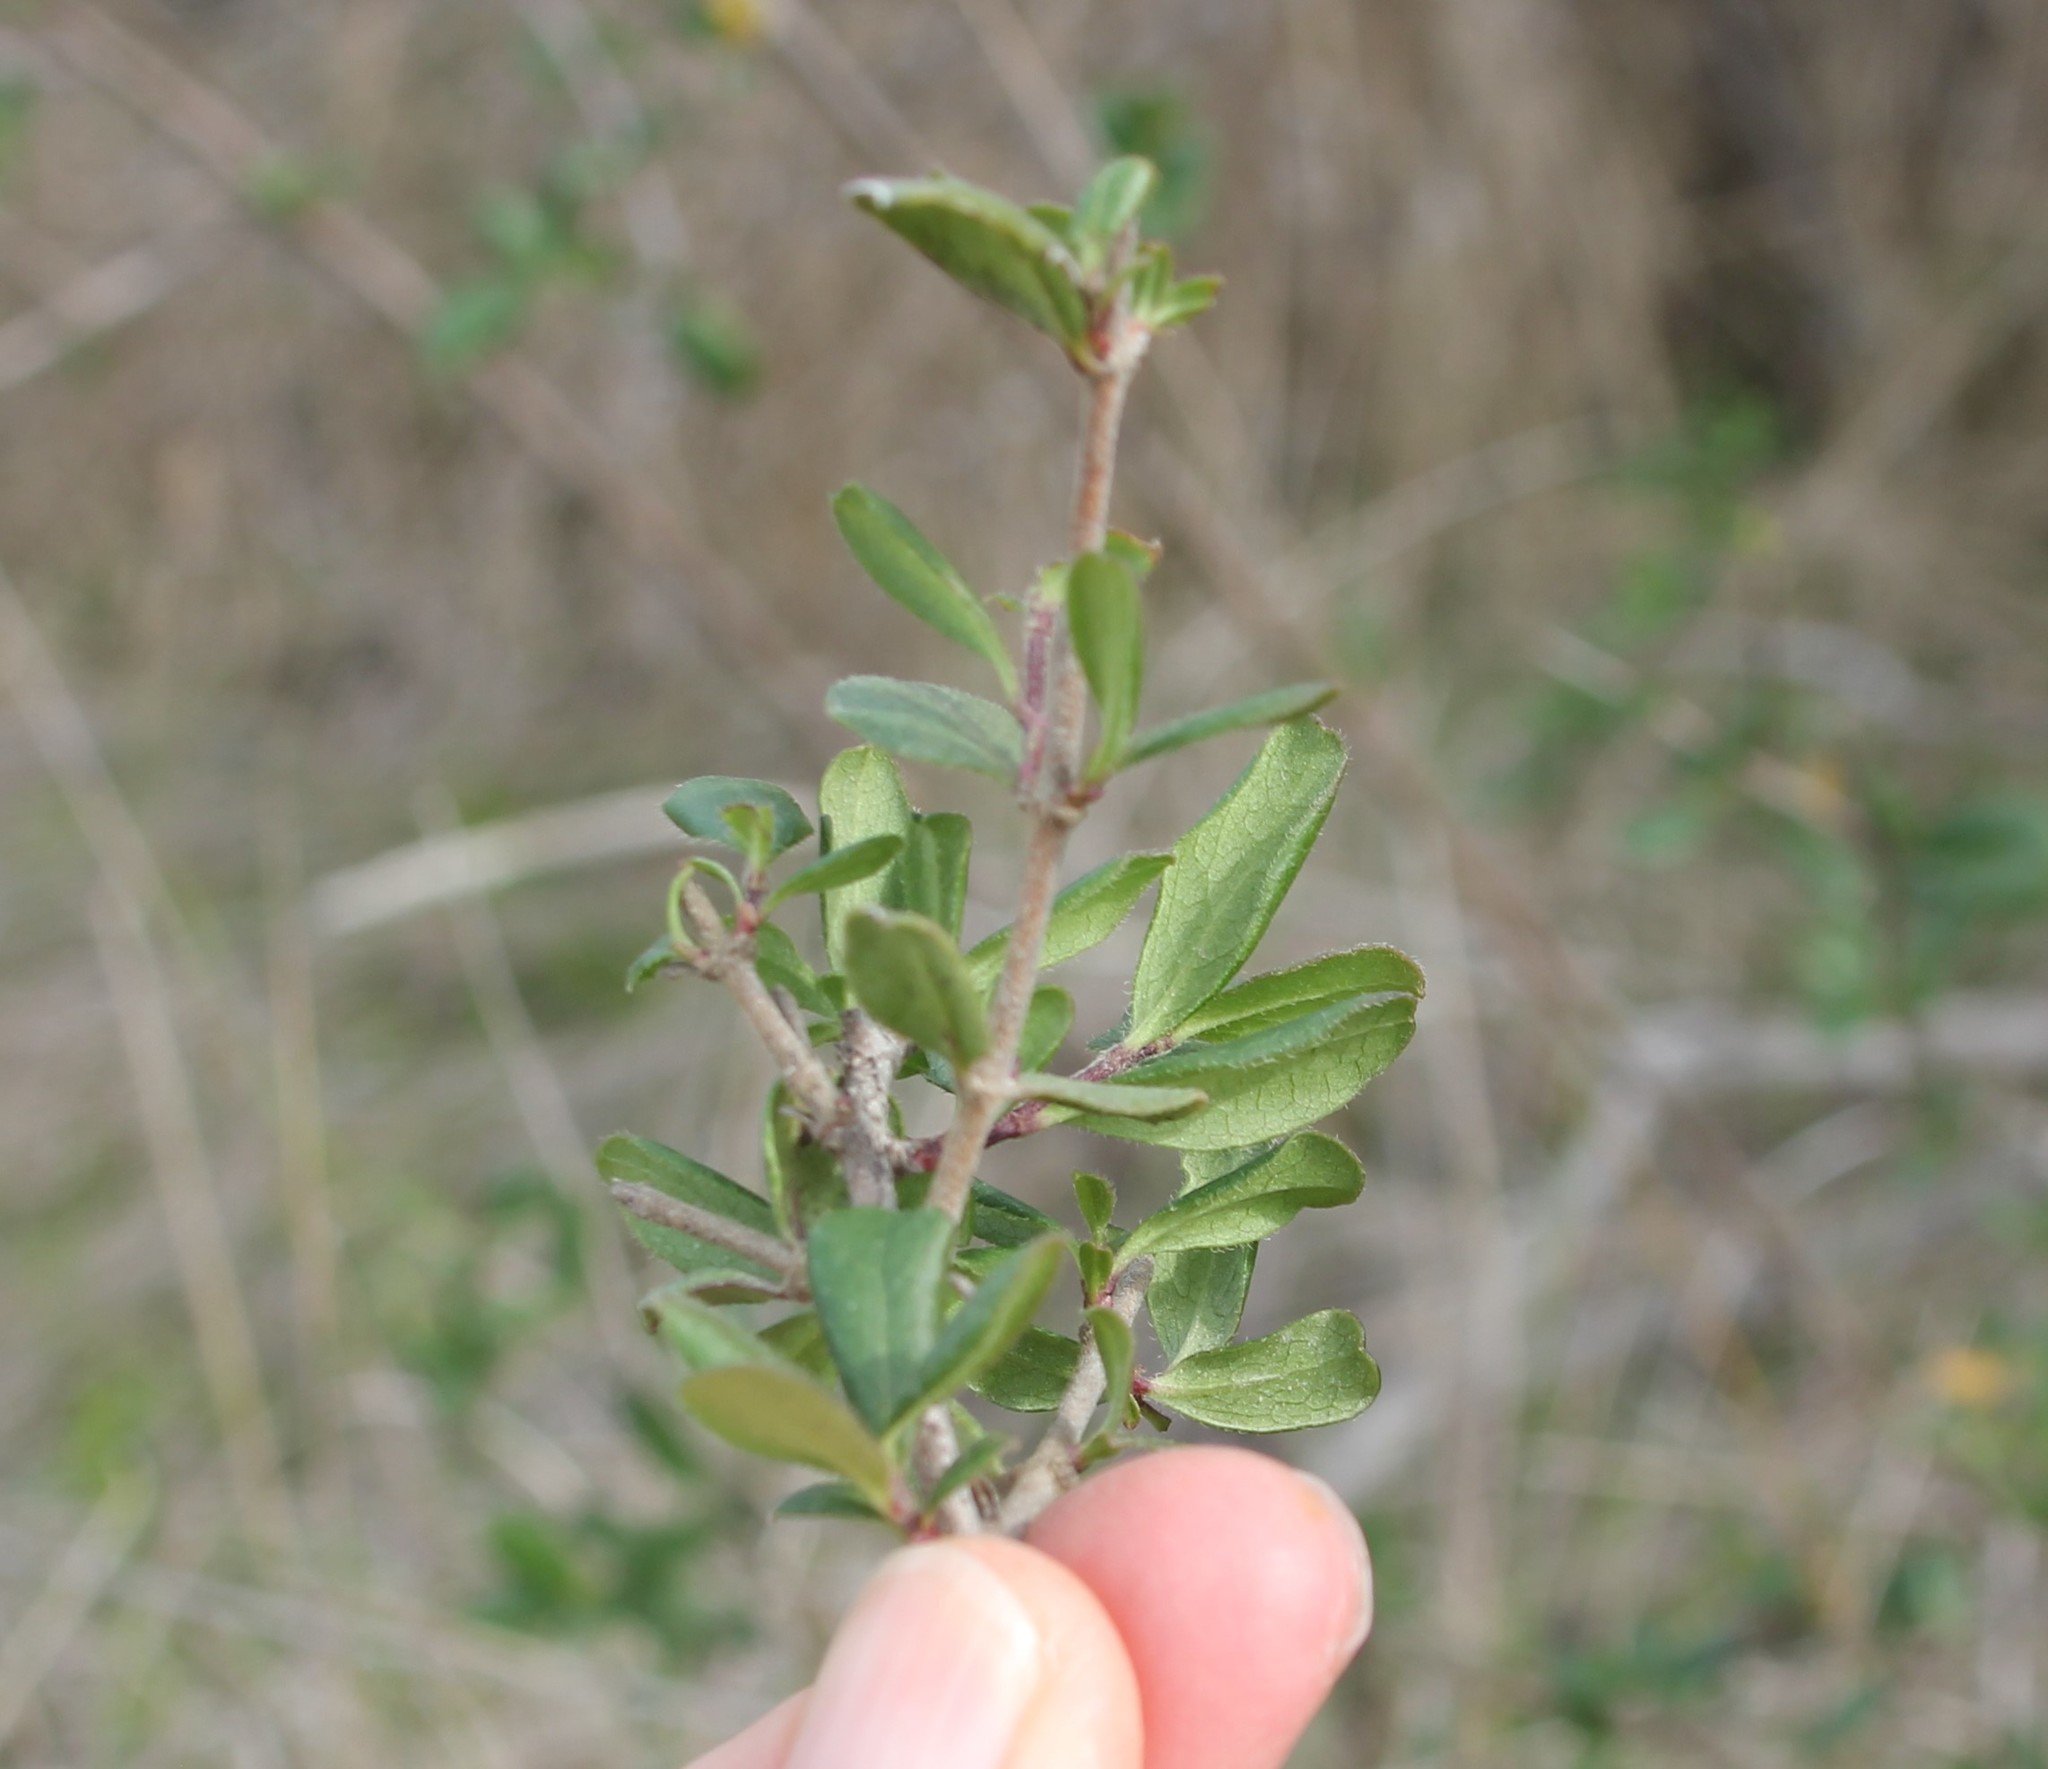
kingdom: Plantae
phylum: Tracheophyta
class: Magnoliopsida
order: Dipsacales
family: Caprifoliaceae
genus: Lonicera
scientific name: Lonicera subspicata
